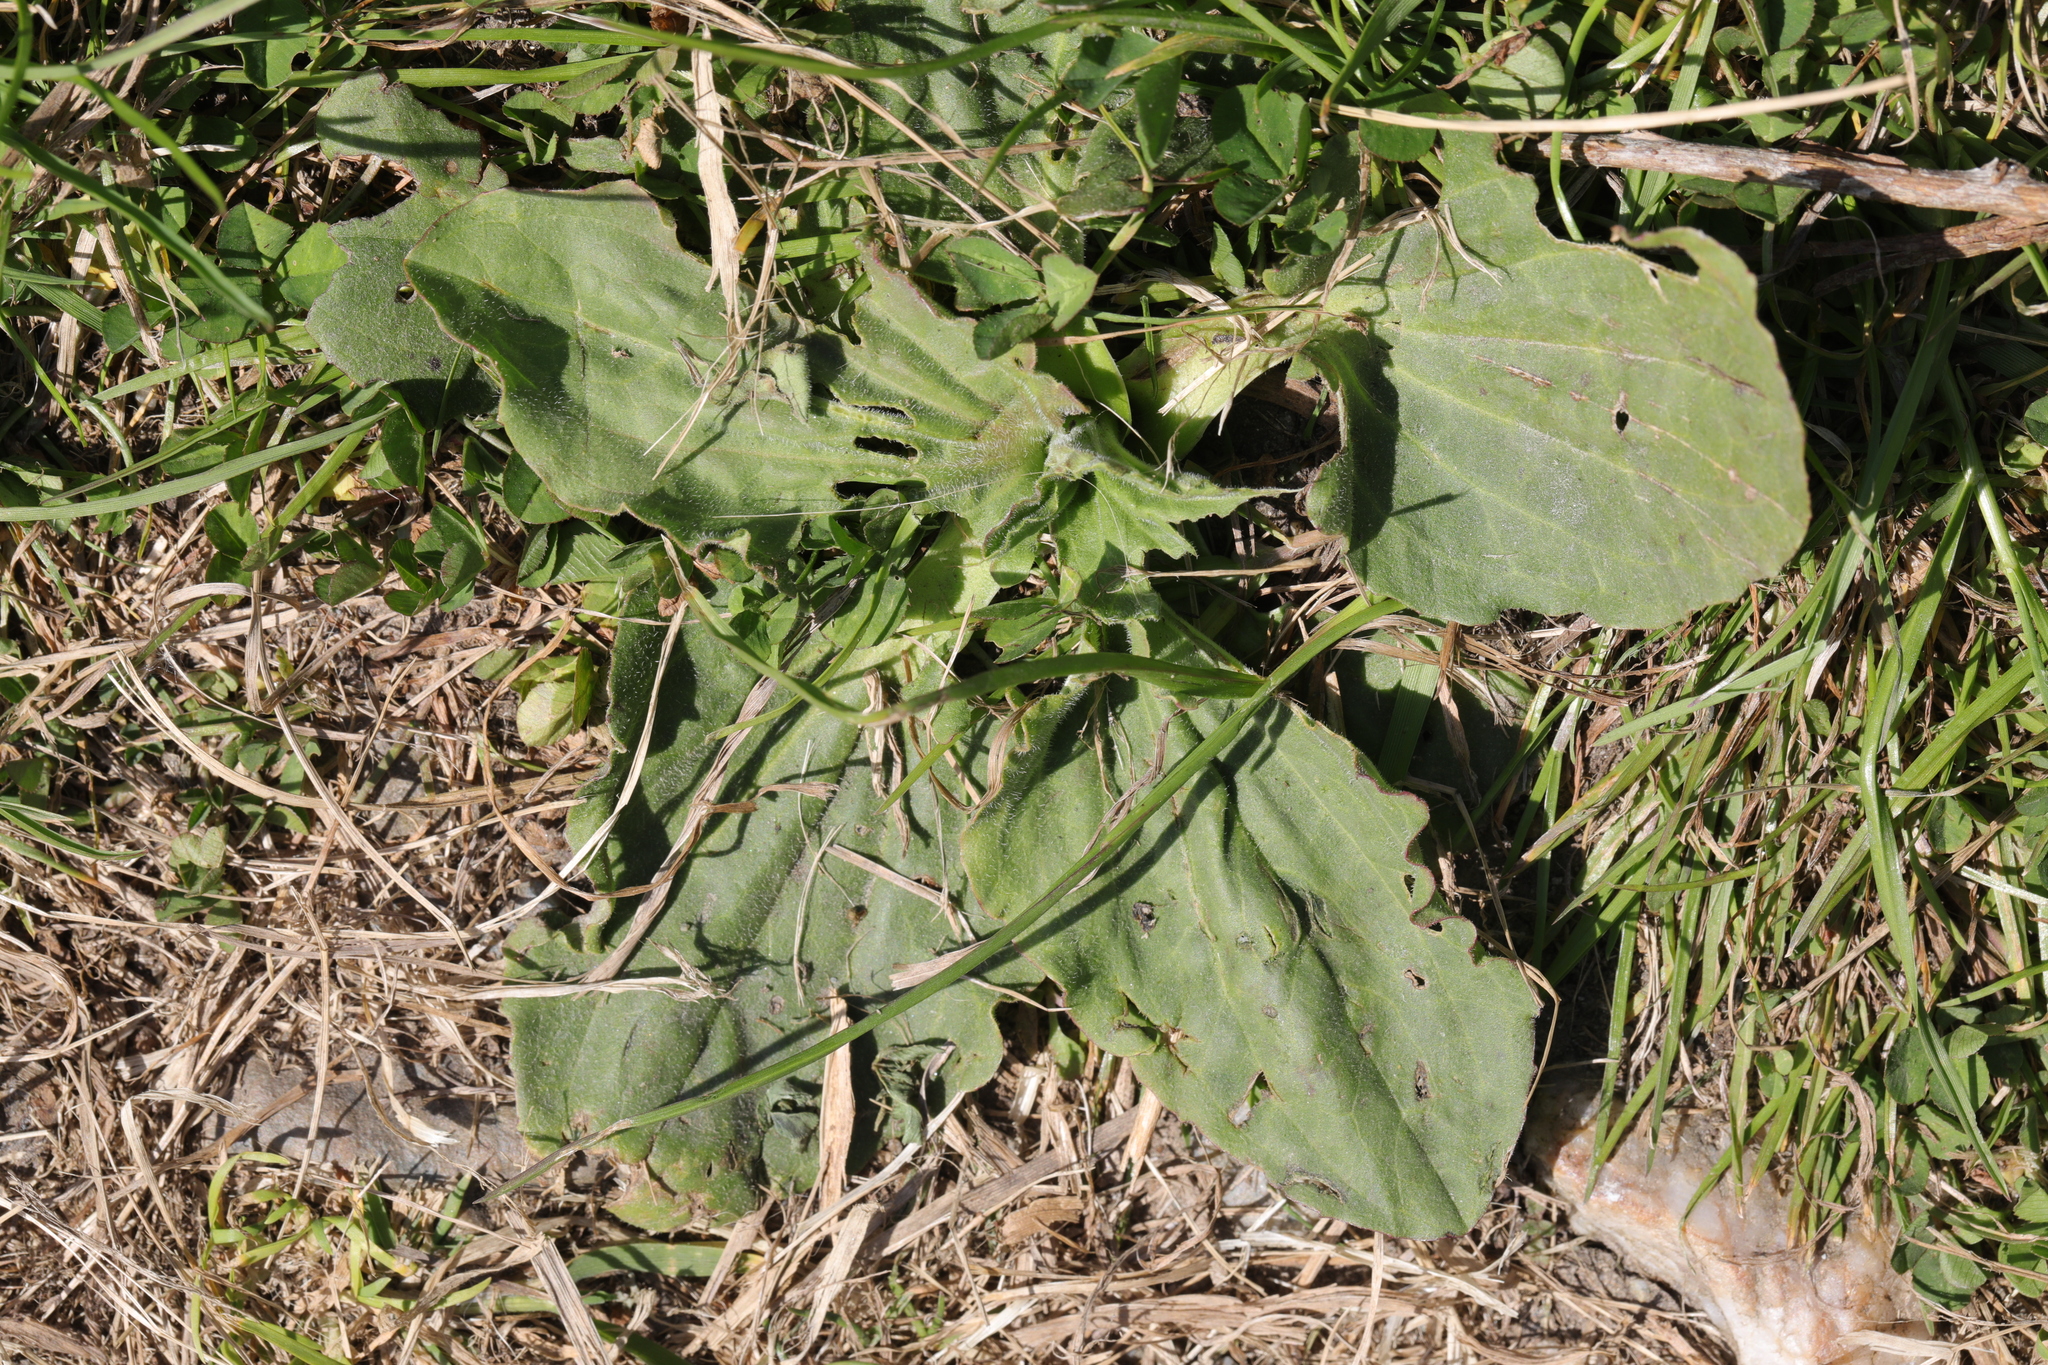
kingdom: Plantae
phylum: Tracheophyta
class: Magnoliopsida
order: Lamiales
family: Plantaginaceae
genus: Plantago
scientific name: Plantago major
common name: Common plantain
